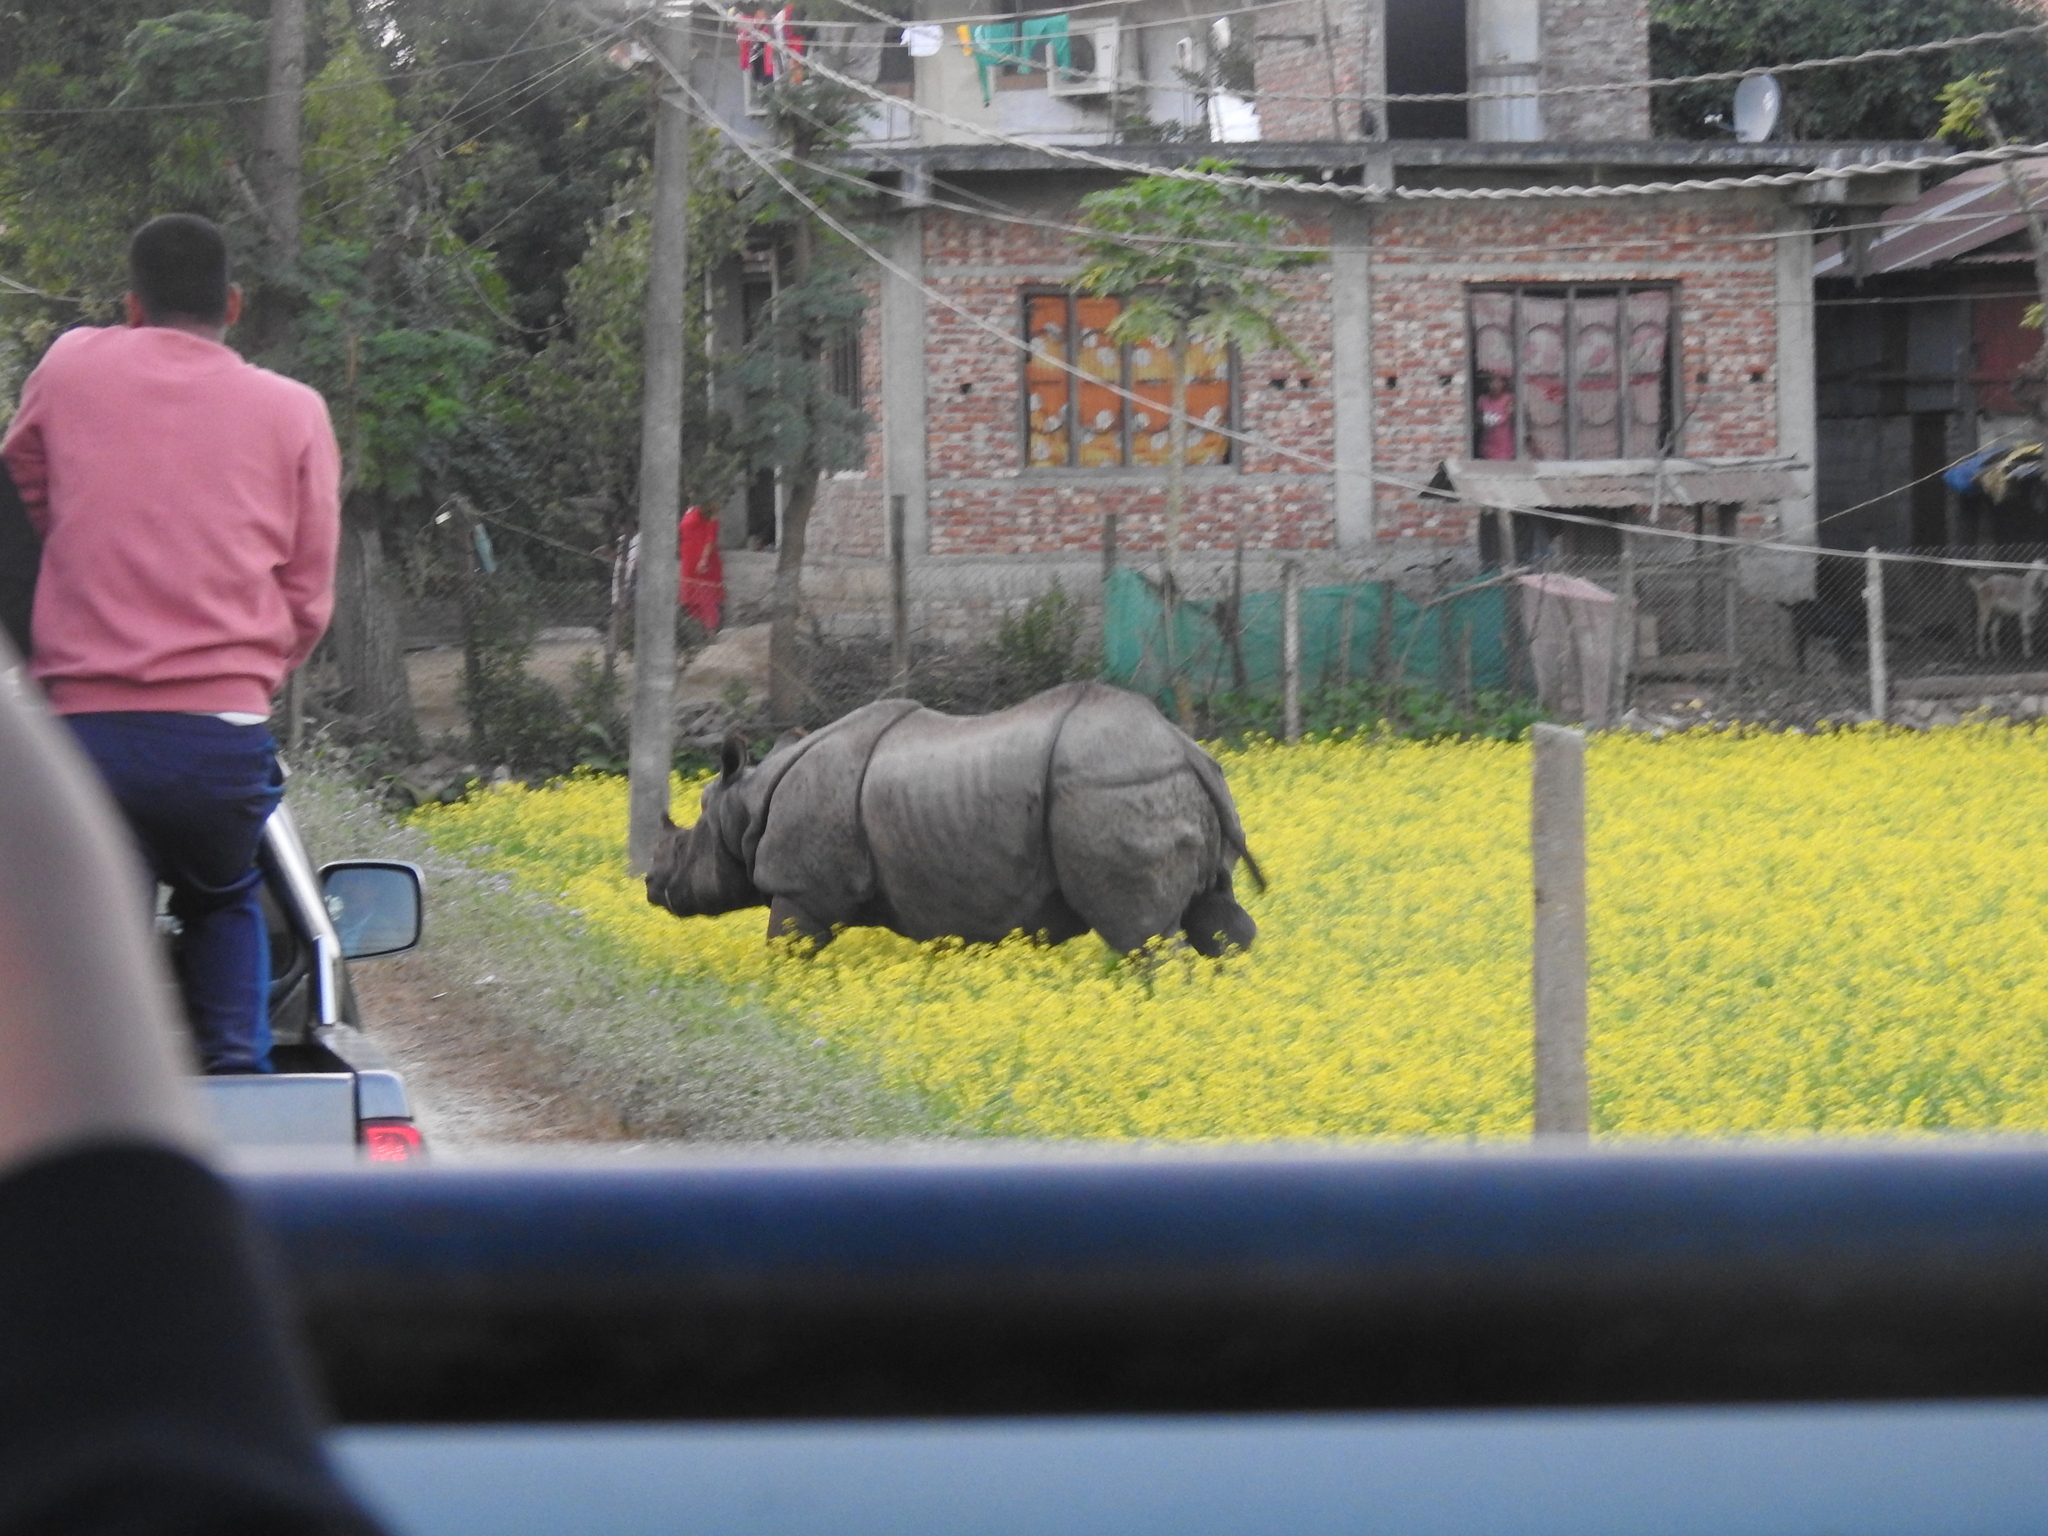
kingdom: Animalia
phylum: Chordata
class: Mammalia
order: Perissodactyla
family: Rhinocerotidae
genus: Rhinoceros
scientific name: Rhinoceros unicornis
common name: Indian rhinoceros
